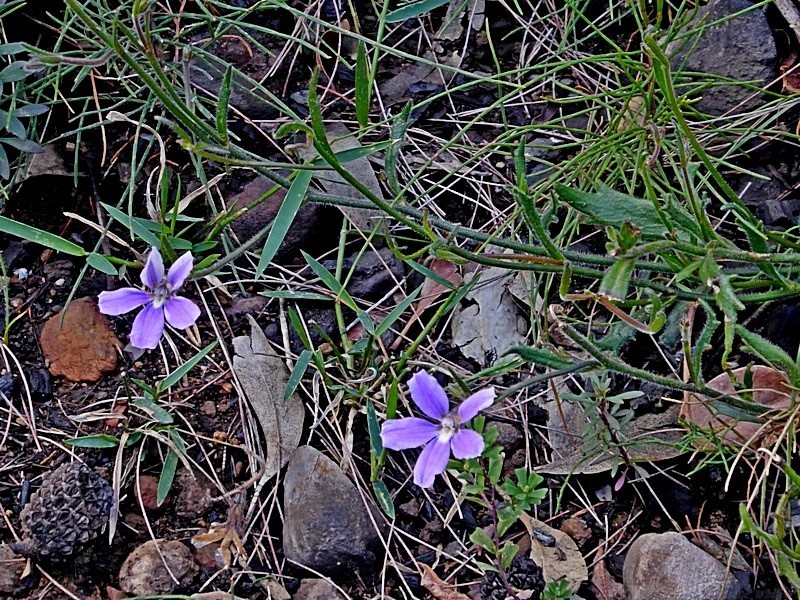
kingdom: Plantae
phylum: Tracheophyta
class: Magnoliopsida
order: Asterales
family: Goodeniaceae
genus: Scaevola
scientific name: Scaevola ramosissima
